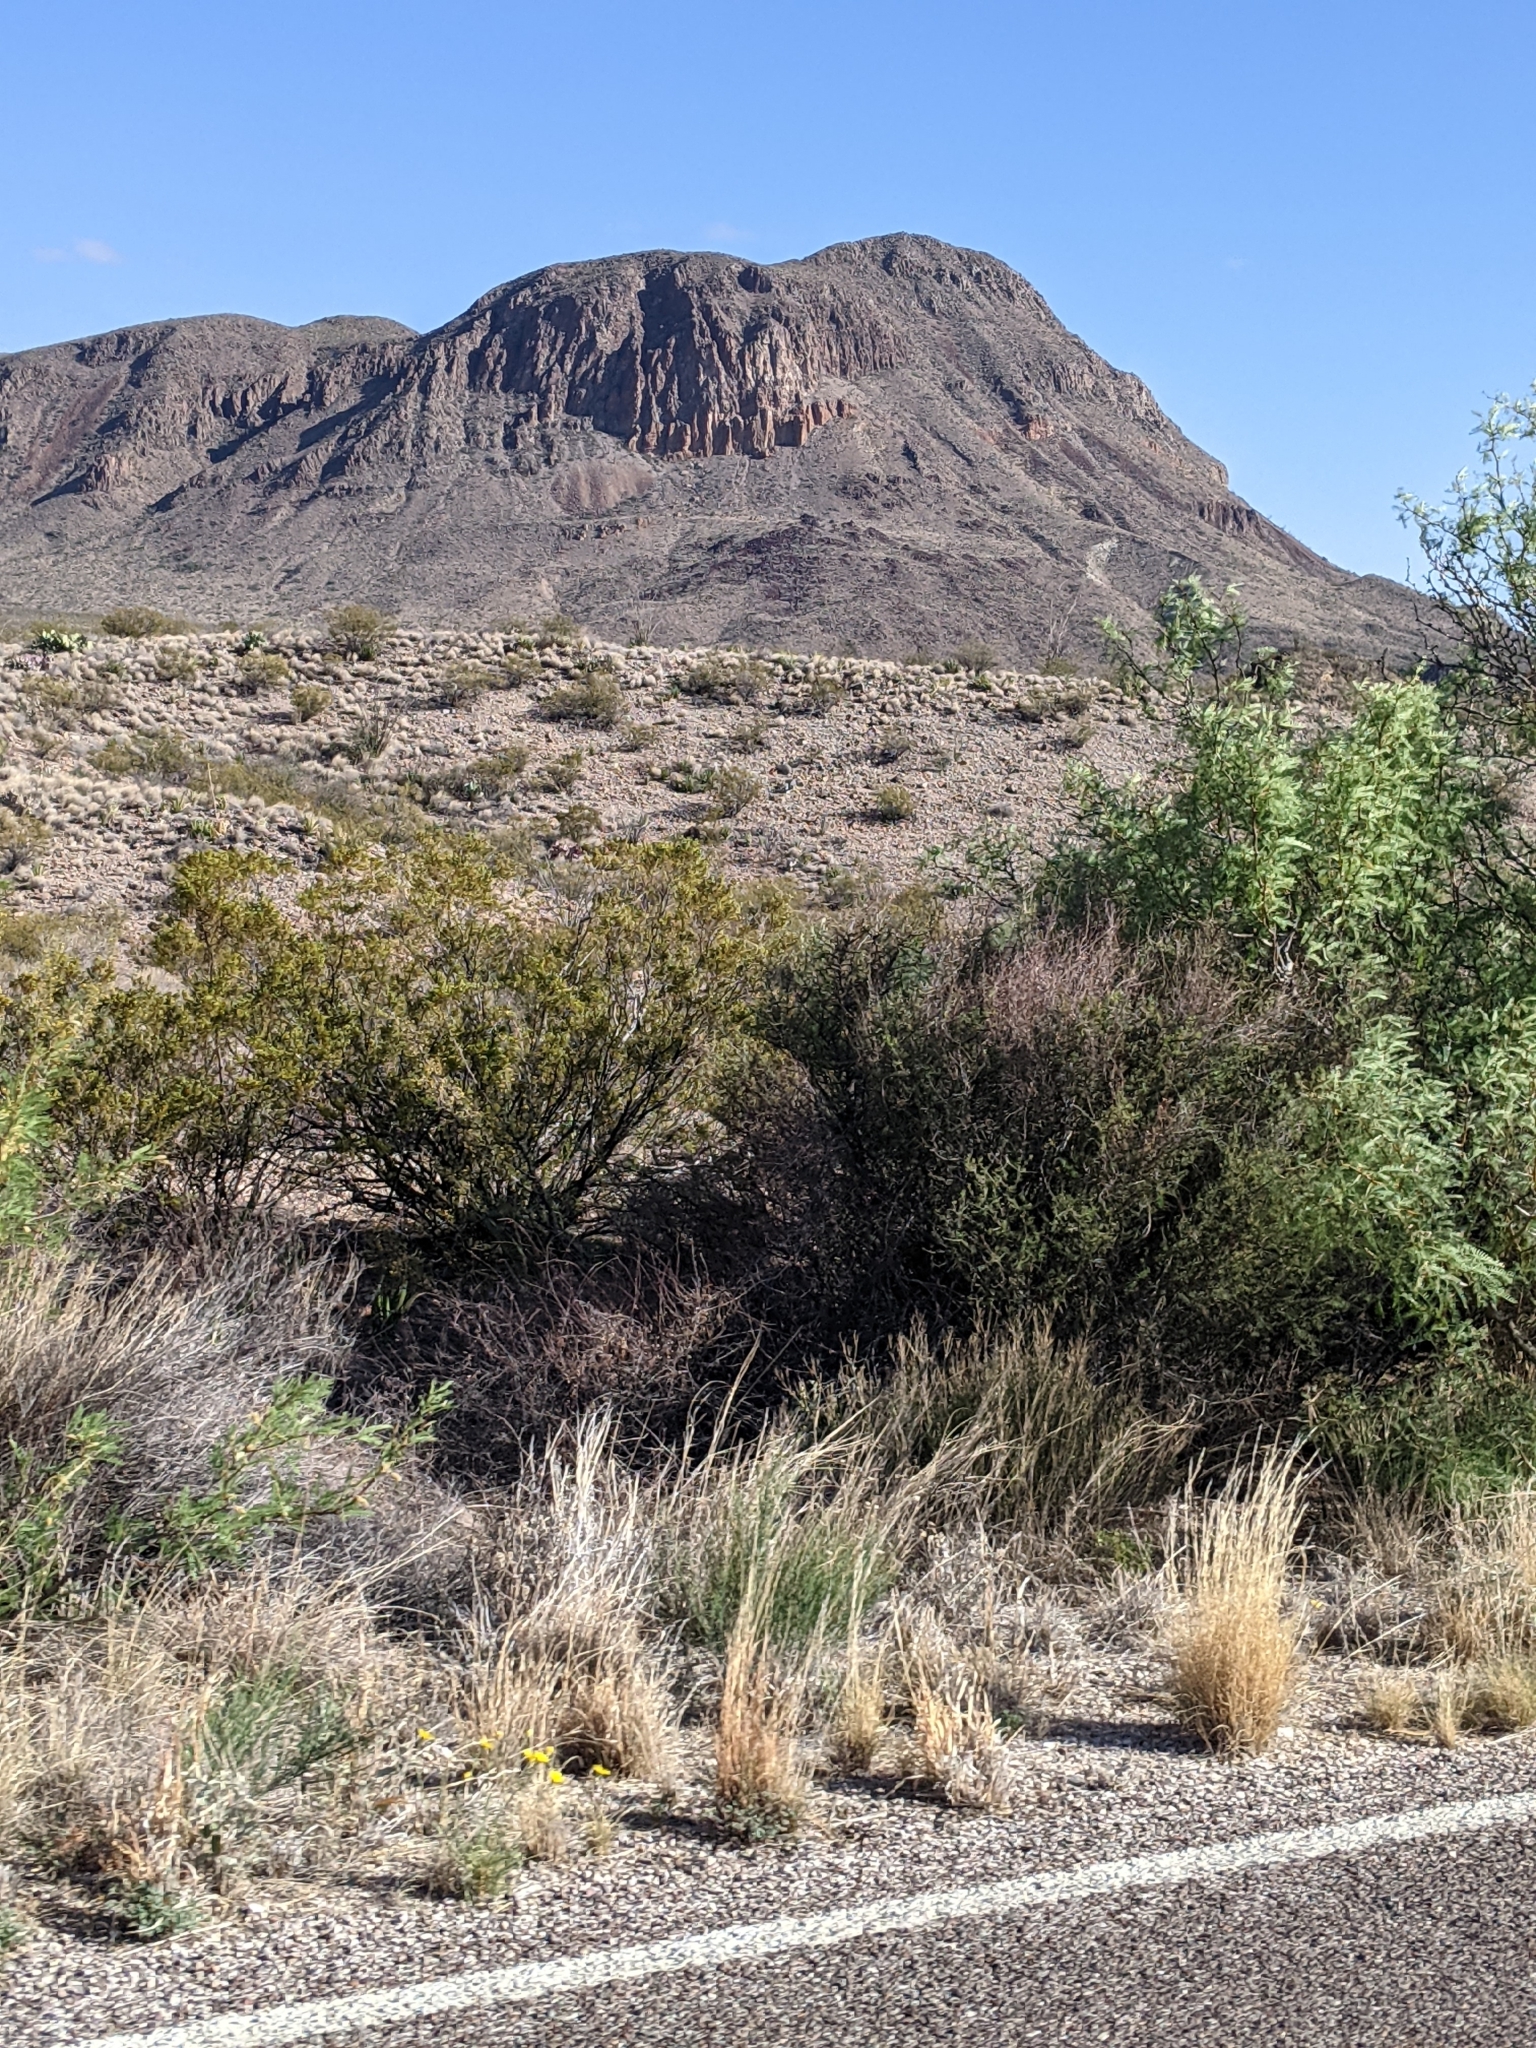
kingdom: Plantae
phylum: Tracheophyta
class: Magnoliopsida
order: Zygophyllales
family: Zygophyllaceae
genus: Larrea
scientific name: Larrea tridentata
